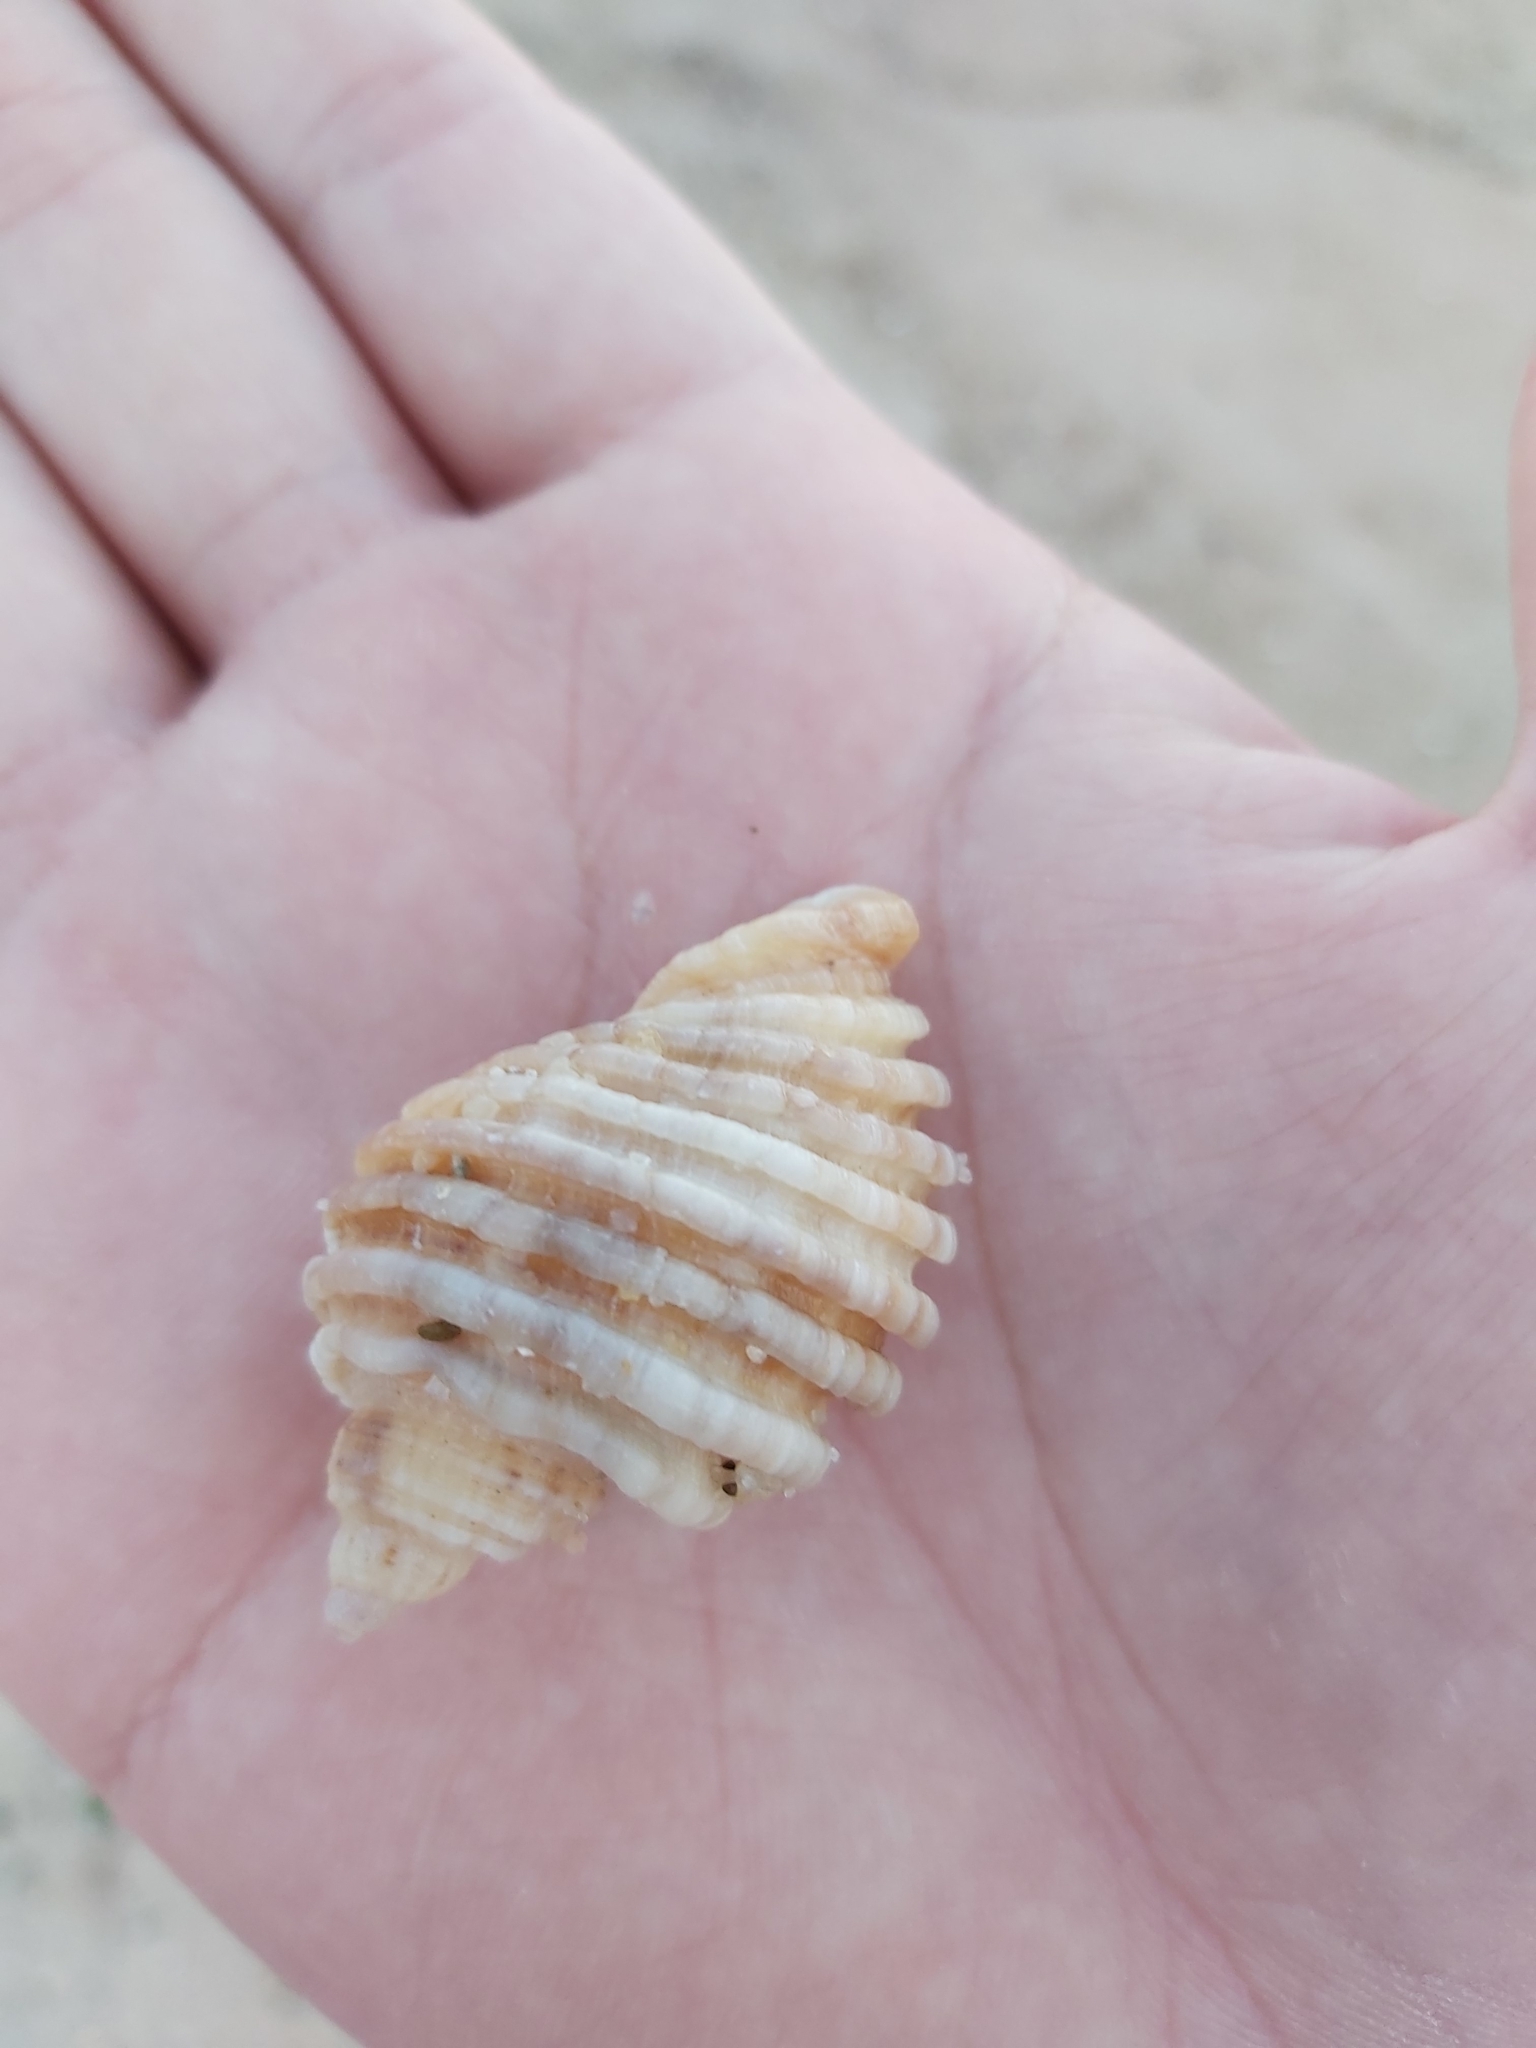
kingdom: Animalia
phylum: Mollusca
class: Gastropoda
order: Neogastropoda
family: Muricidae
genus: Dicathais
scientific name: Dicathais orbita
